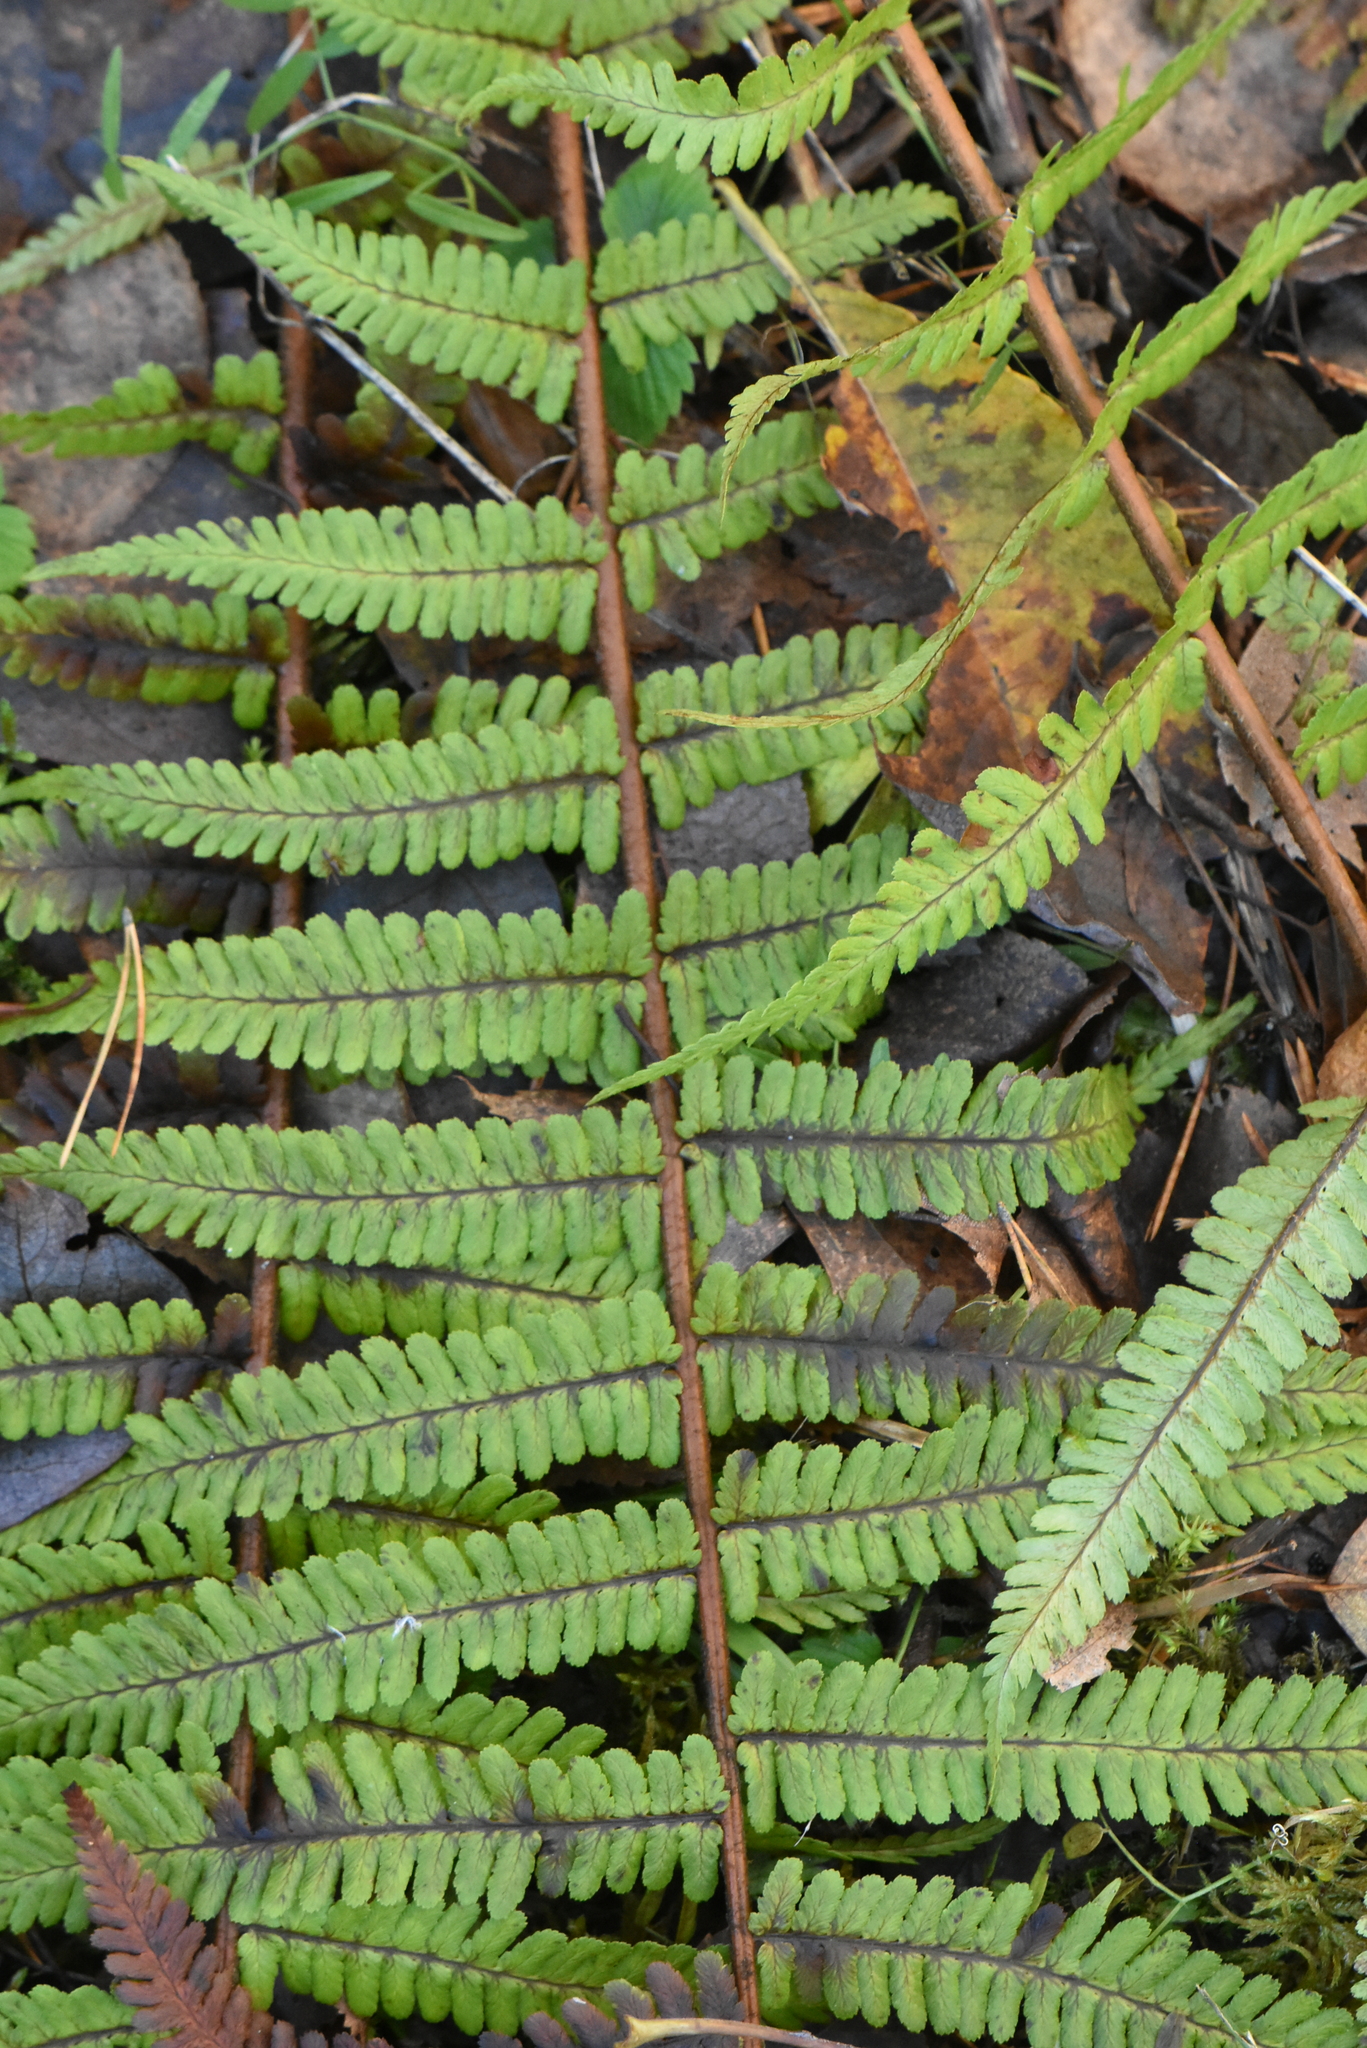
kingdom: Plantae
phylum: Tracheophyta
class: Polypodiopsida
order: Polypodiales
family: Dryopteridaceae
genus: Dryopteris
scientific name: Dryopteris filix-mas
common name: Male fern
